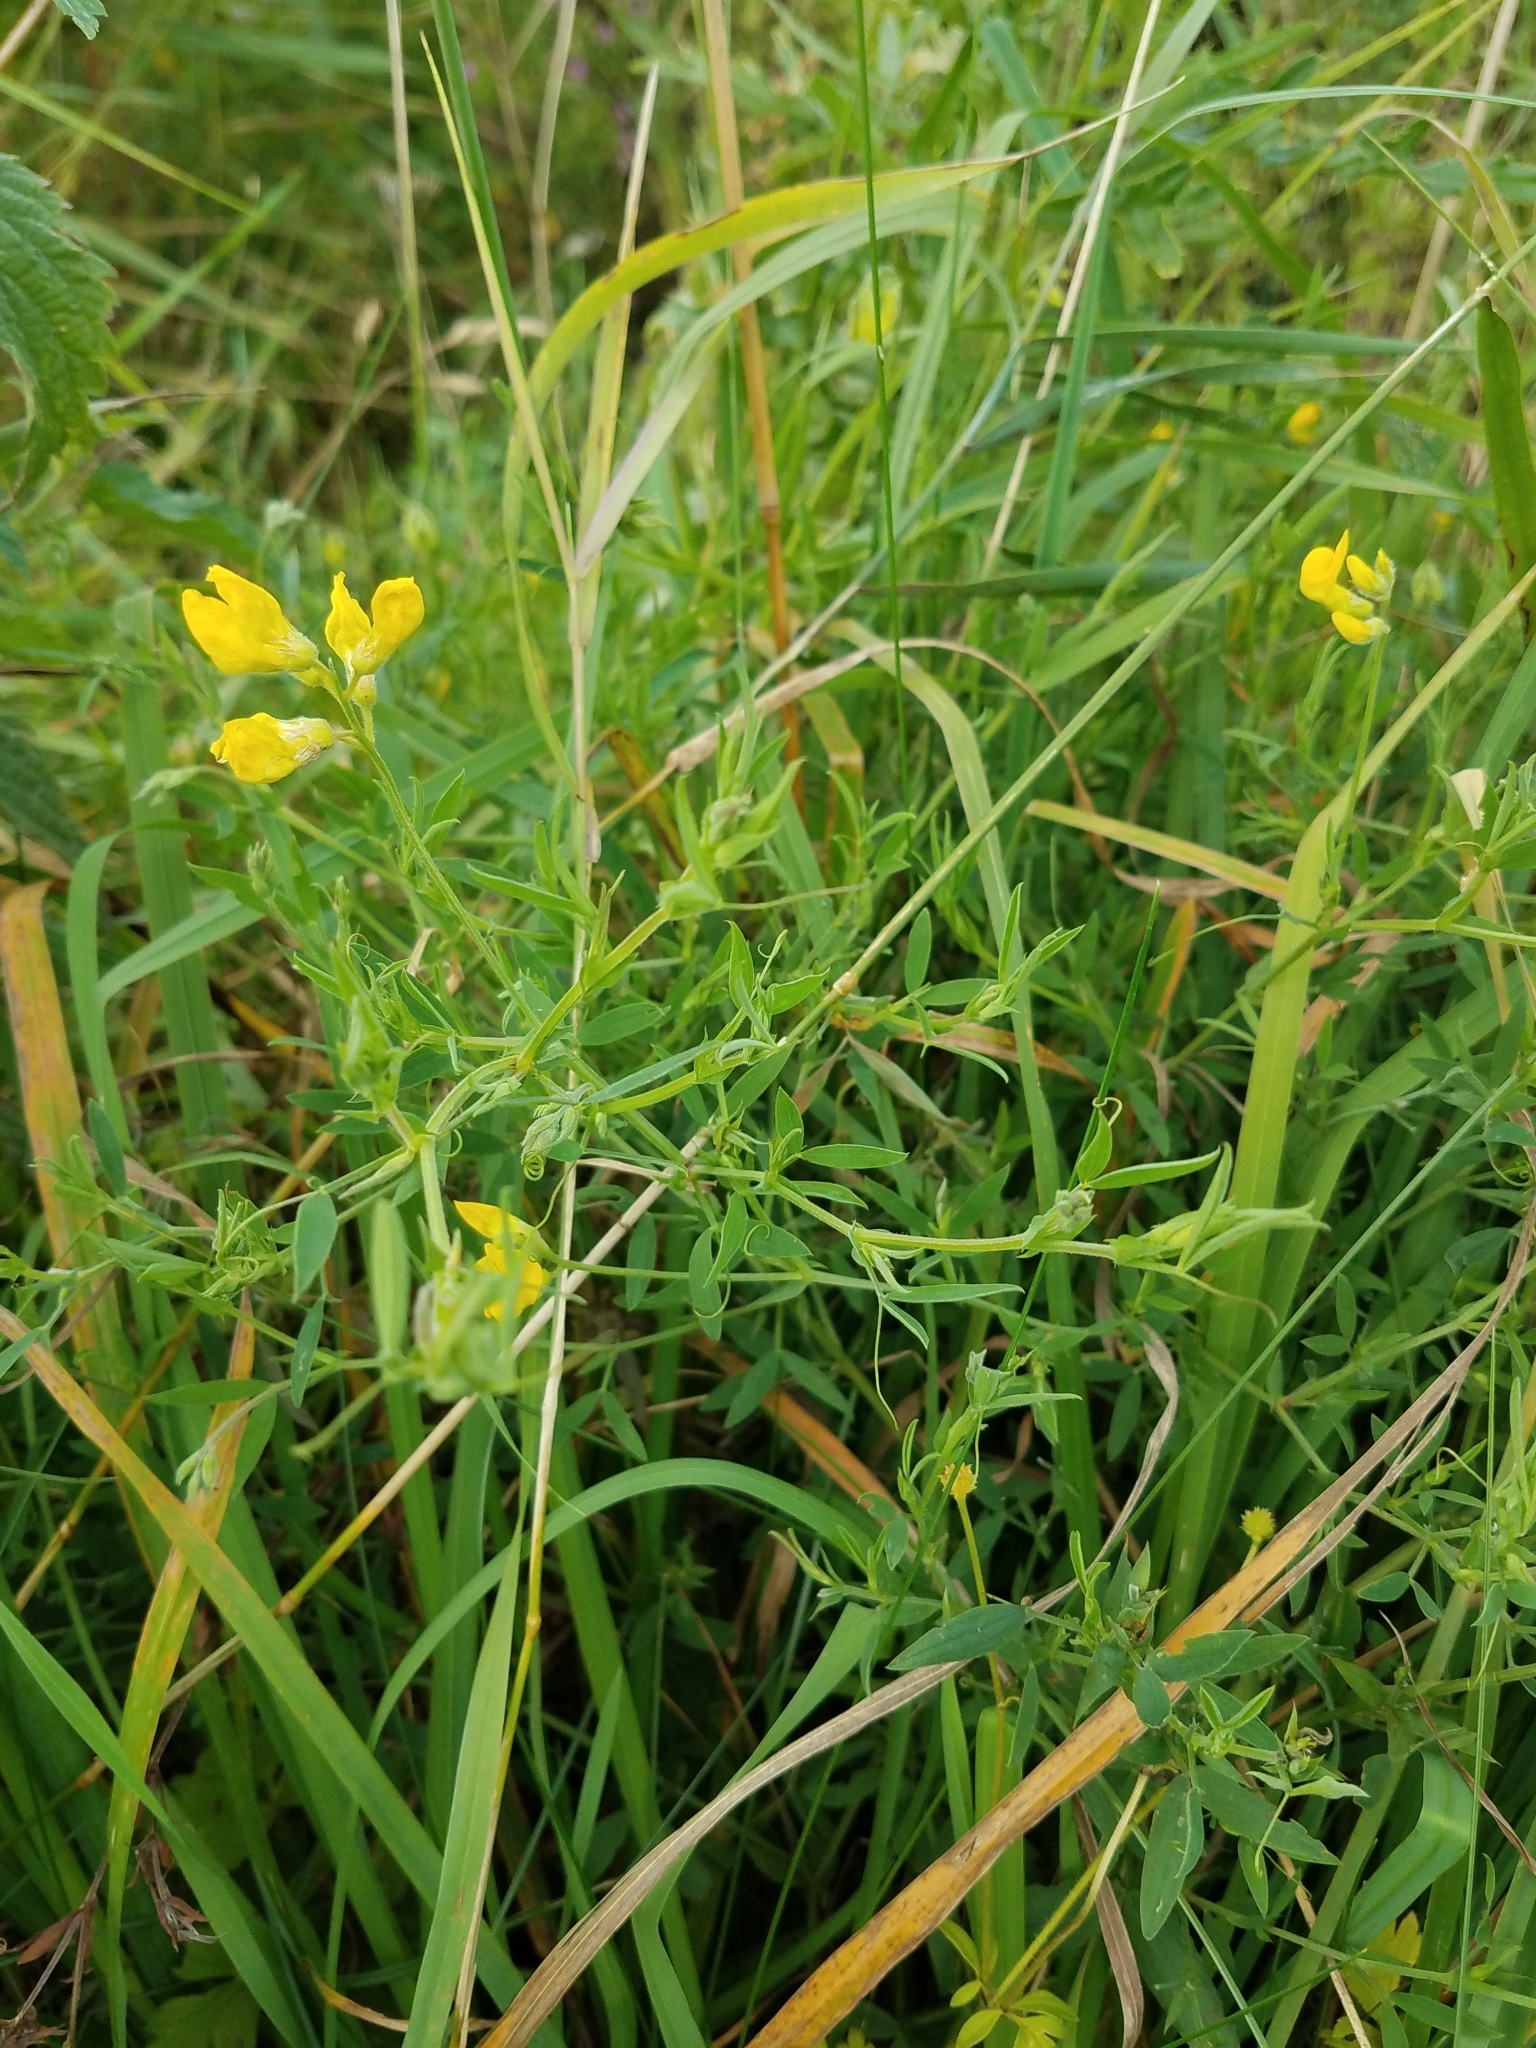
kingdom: Plantae
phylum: Tracheophyta
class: Magnoliopsida
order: Fabales
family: Fabaceae
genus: Lathyrus
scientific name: Lathyrus pratensis
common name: Meadow vetchling
